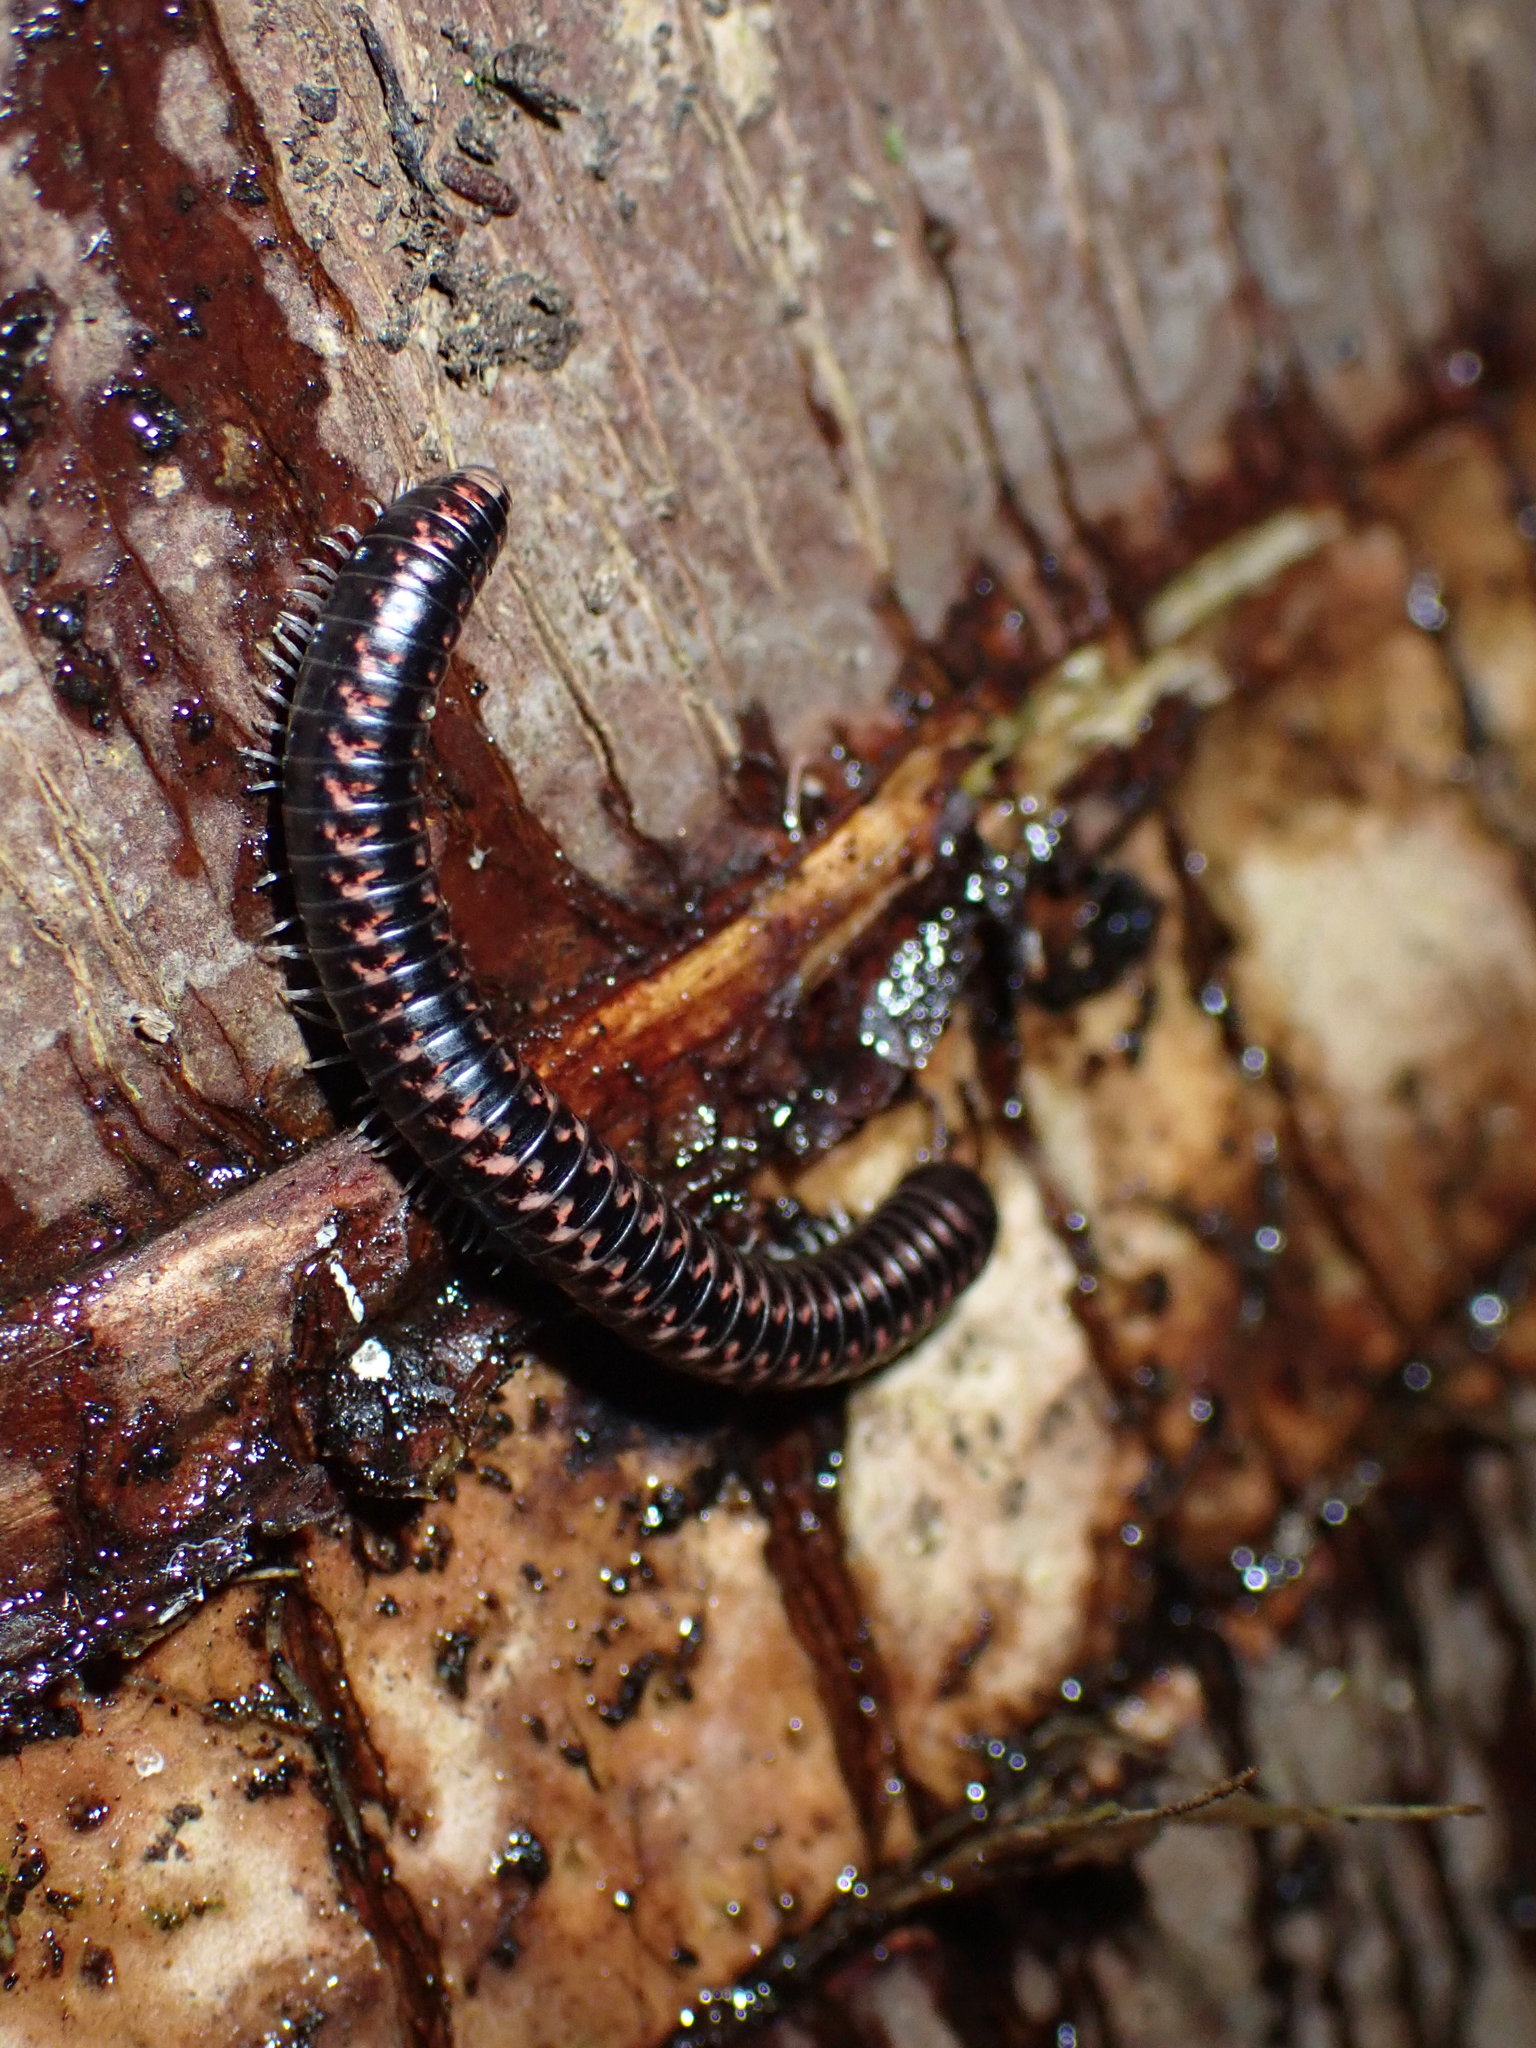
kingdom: Animalia
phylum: Arthropoda
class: Diplopoda
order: Spirobolida
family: Spirobolellidae
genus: Spirobolellus
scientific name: Spirobolellus antipodarum
